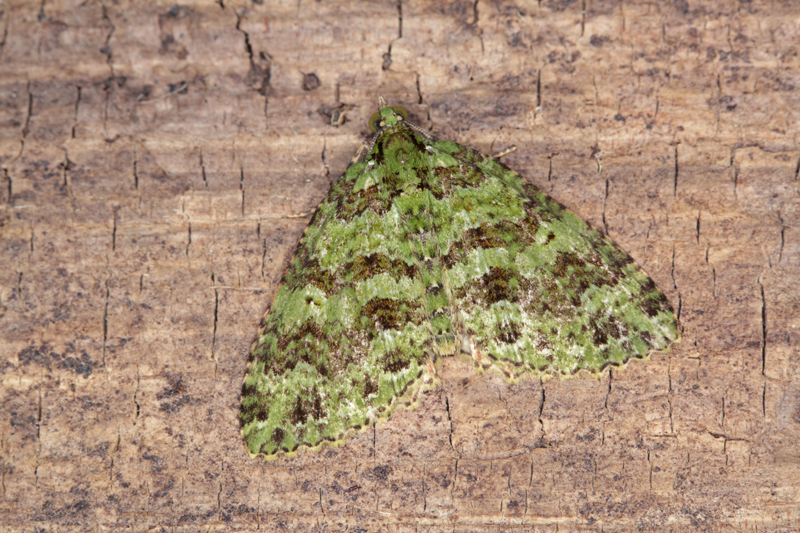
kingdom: Animalia
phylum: Arthropoda
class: Insecta
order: Lepidoptera
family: Geometridae
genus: Austrocidaria
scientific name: Austrocidaria similata
